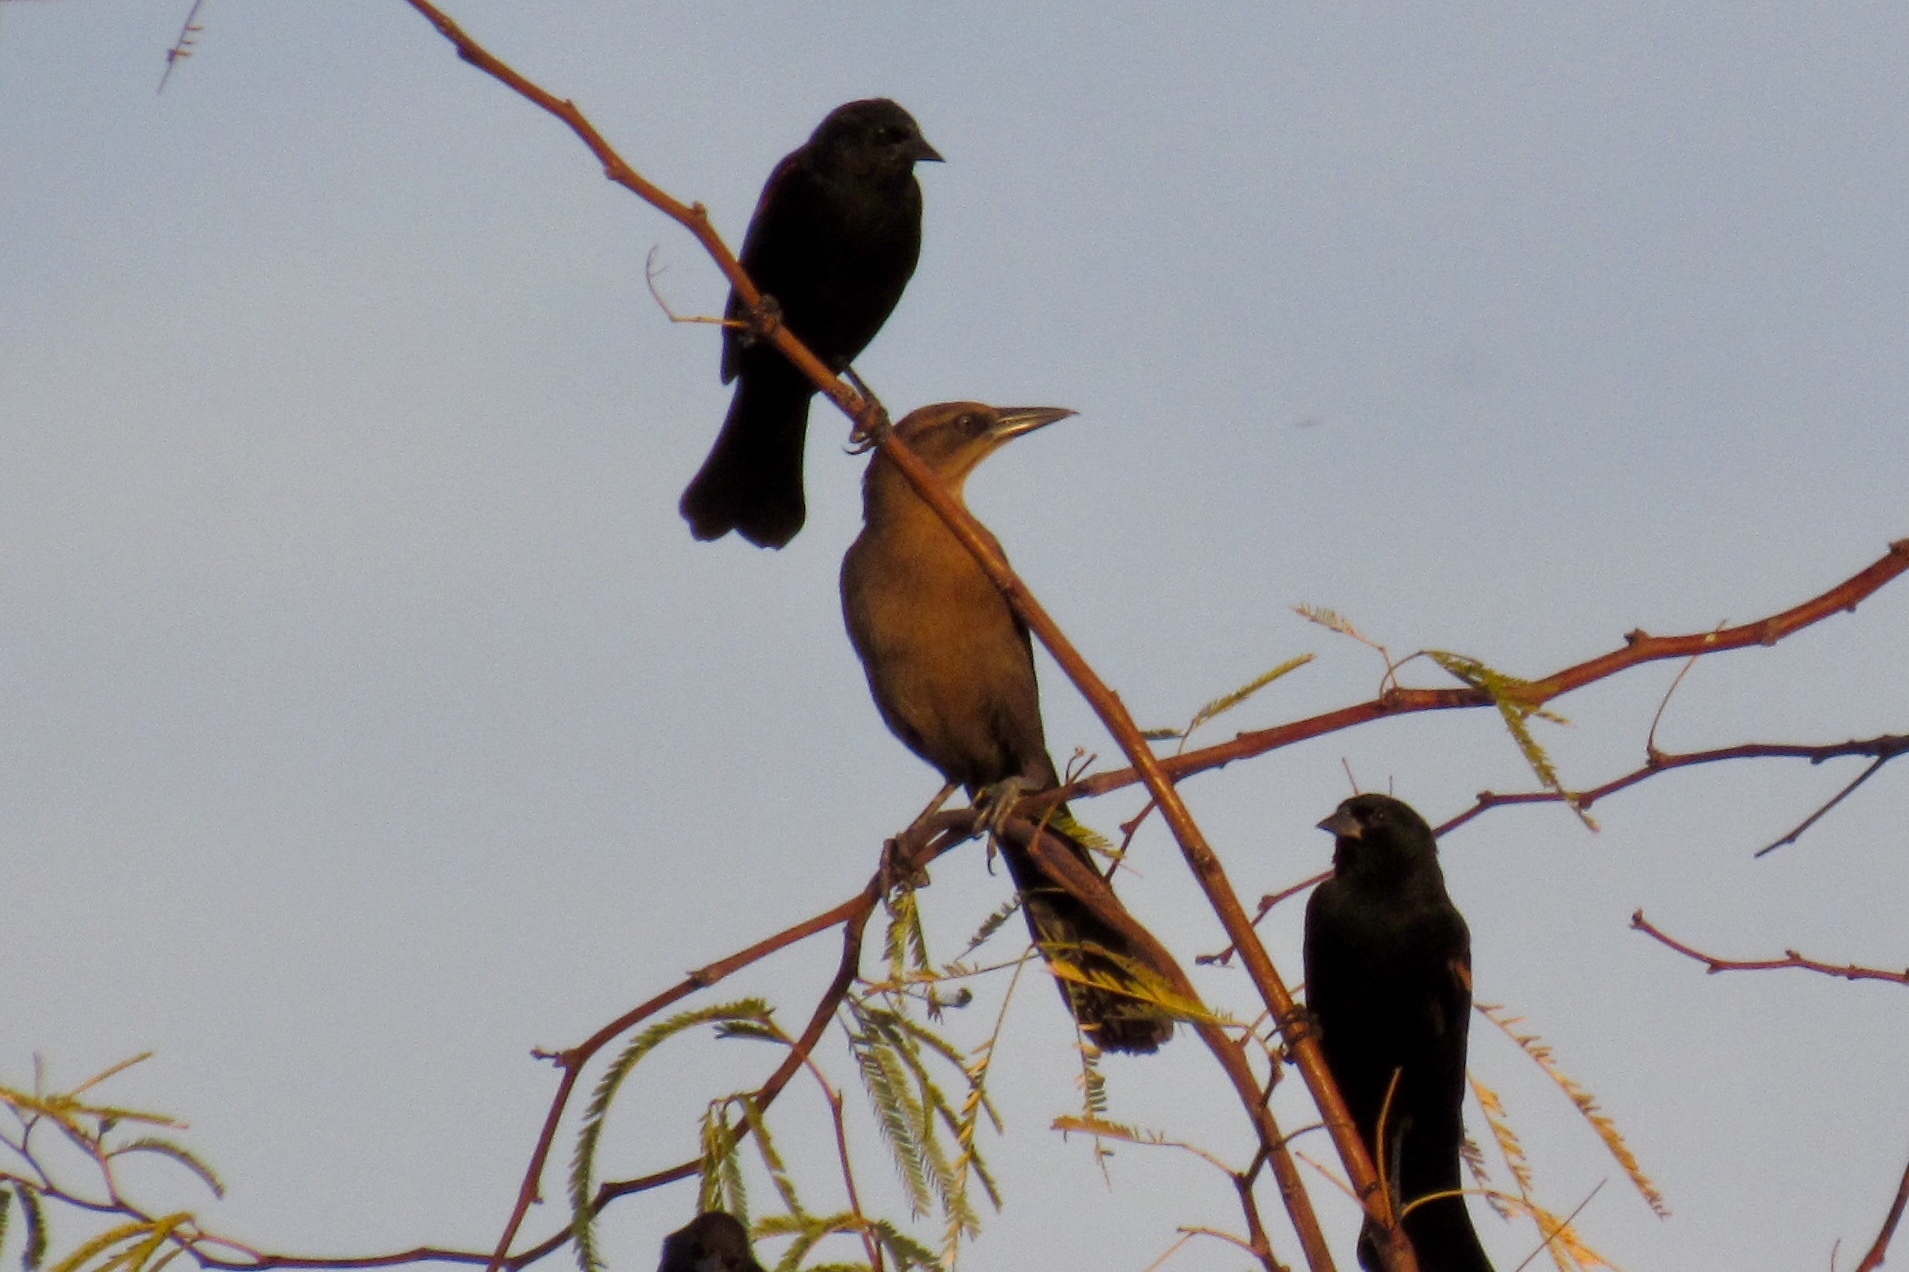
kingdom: Animalia
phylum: Chordata
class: Aves
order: Passeriformes
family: Icteridae
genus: Quiscalus
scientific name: Quiscalus mexicanus
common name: Great-tailed grackle
